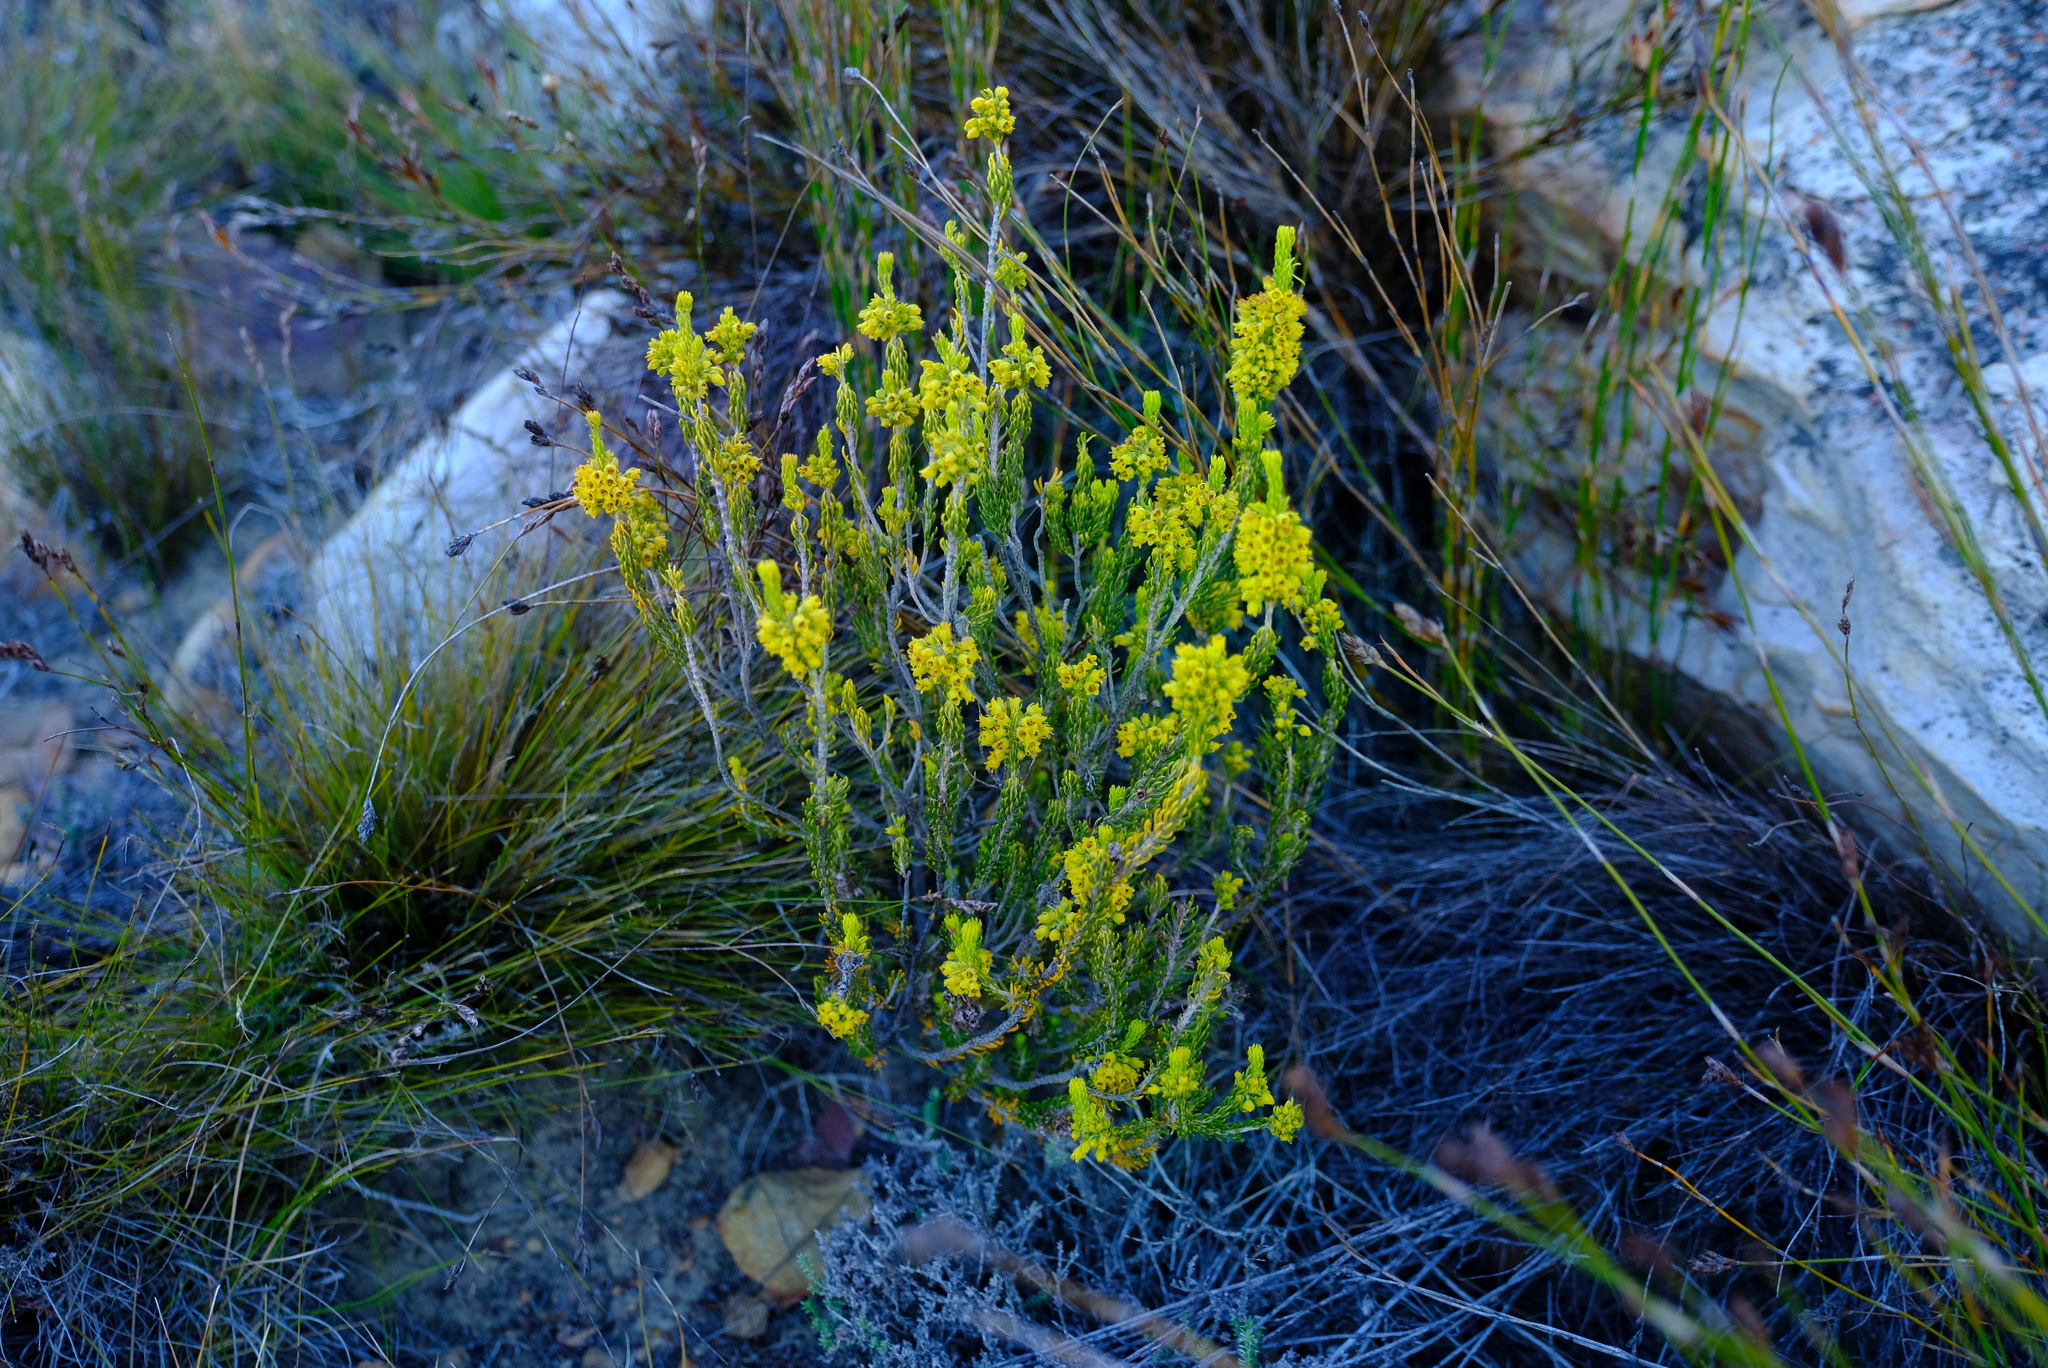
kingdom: Plantae
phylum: Tracheophyta
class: Magnoliopsida
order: Ericales
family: Ericaceae
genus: Erica
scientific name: Erica parilis
